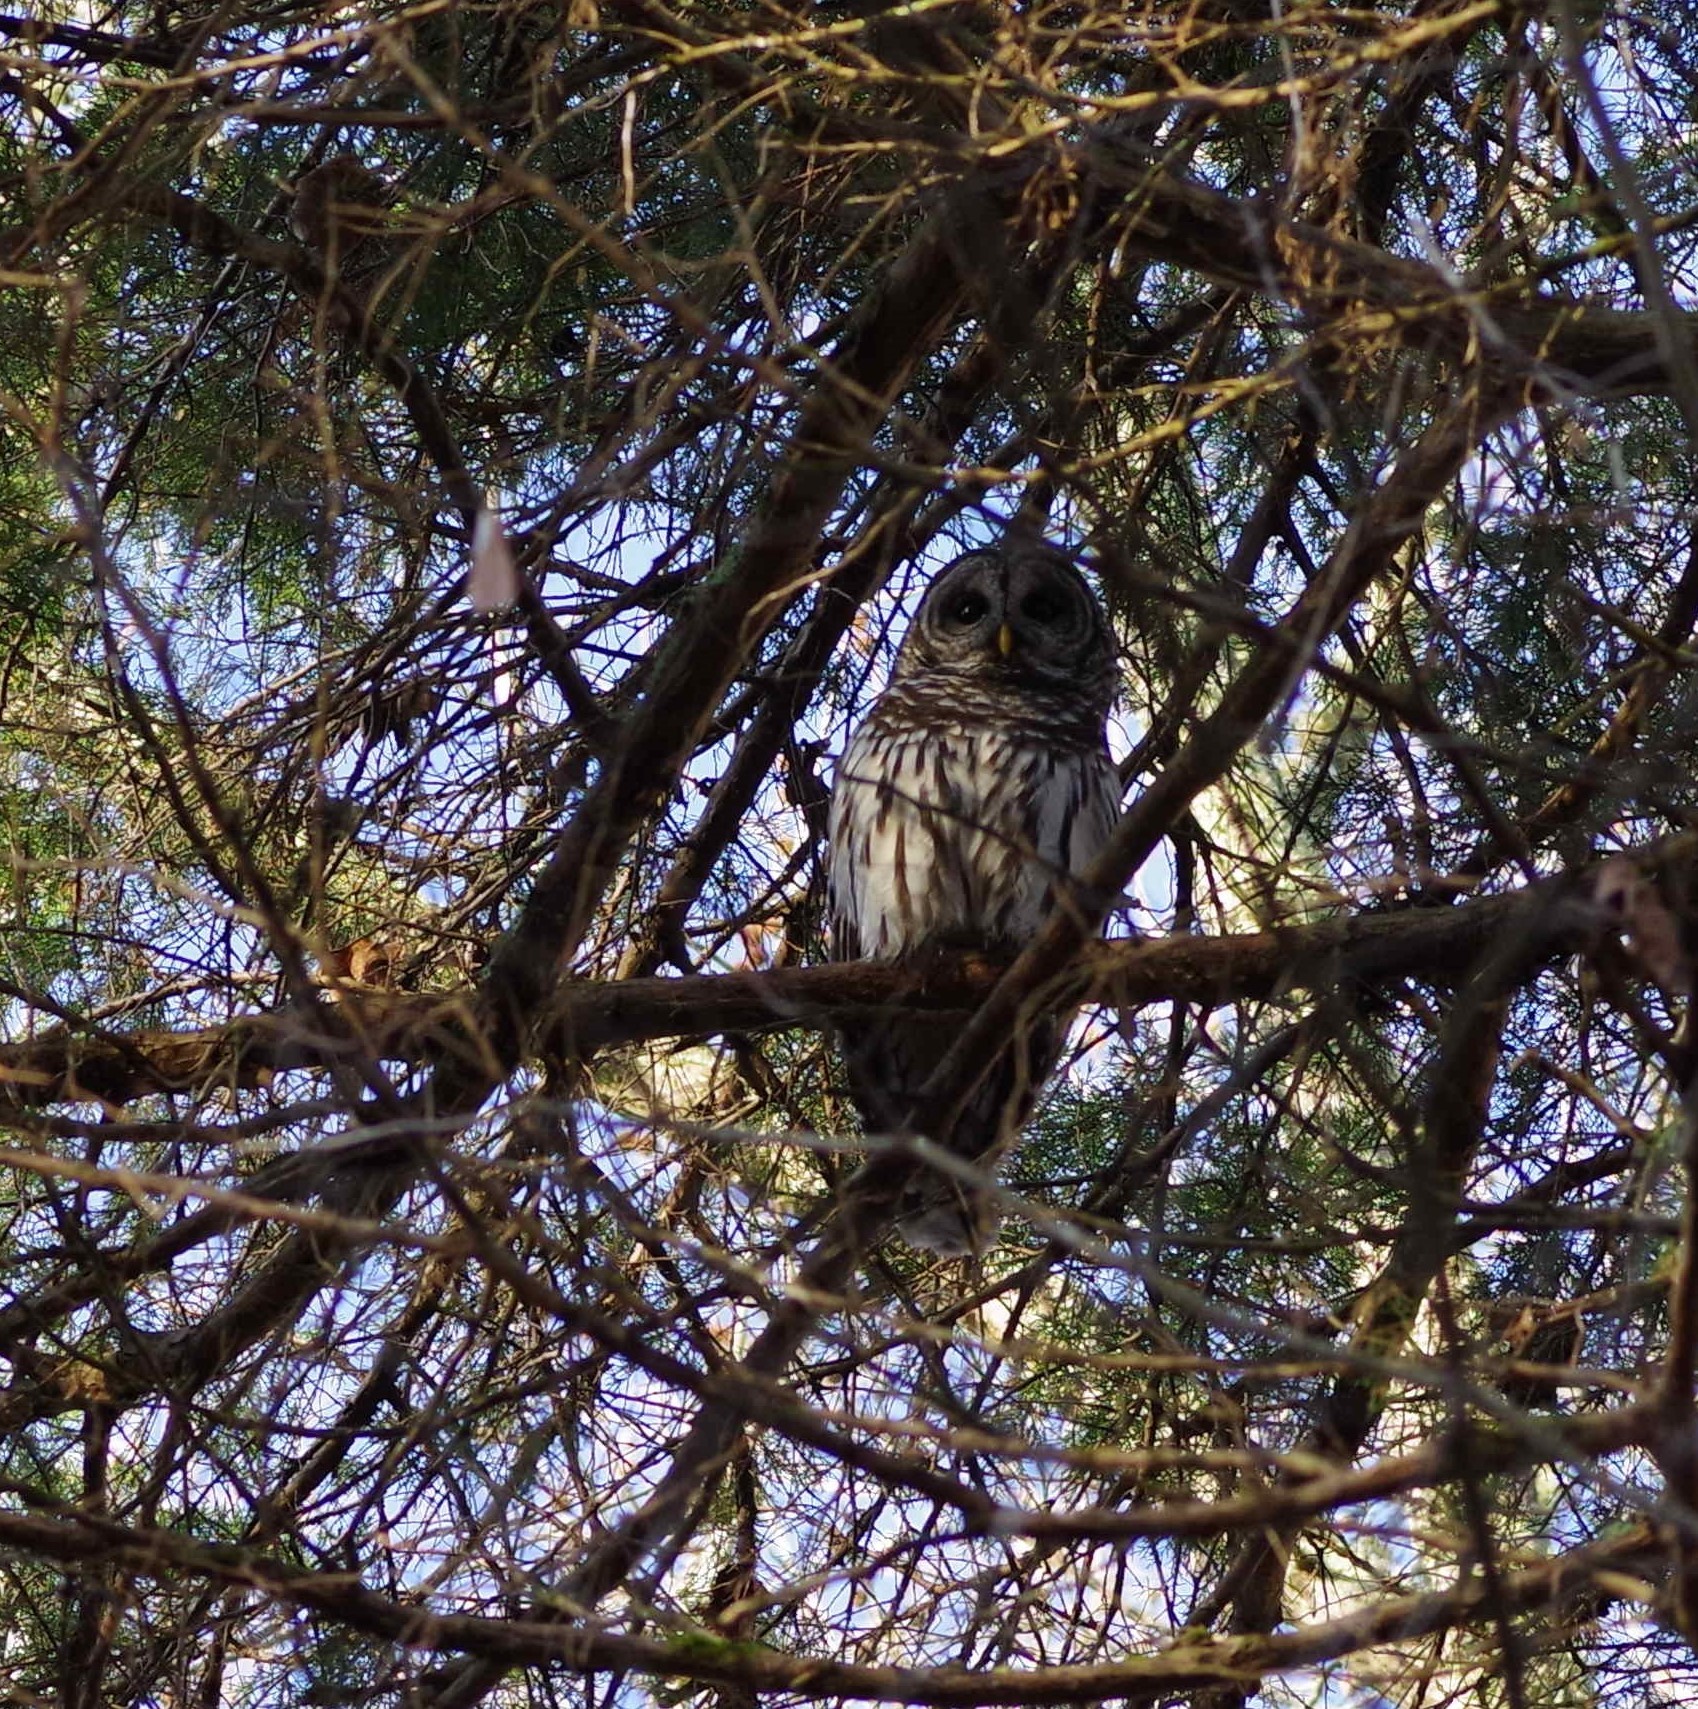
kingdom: Animalia
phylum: Chordata
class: Aves
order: Strigiformes
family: Strigidae
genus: Strix
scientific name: Strix varia
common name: Barred owl
